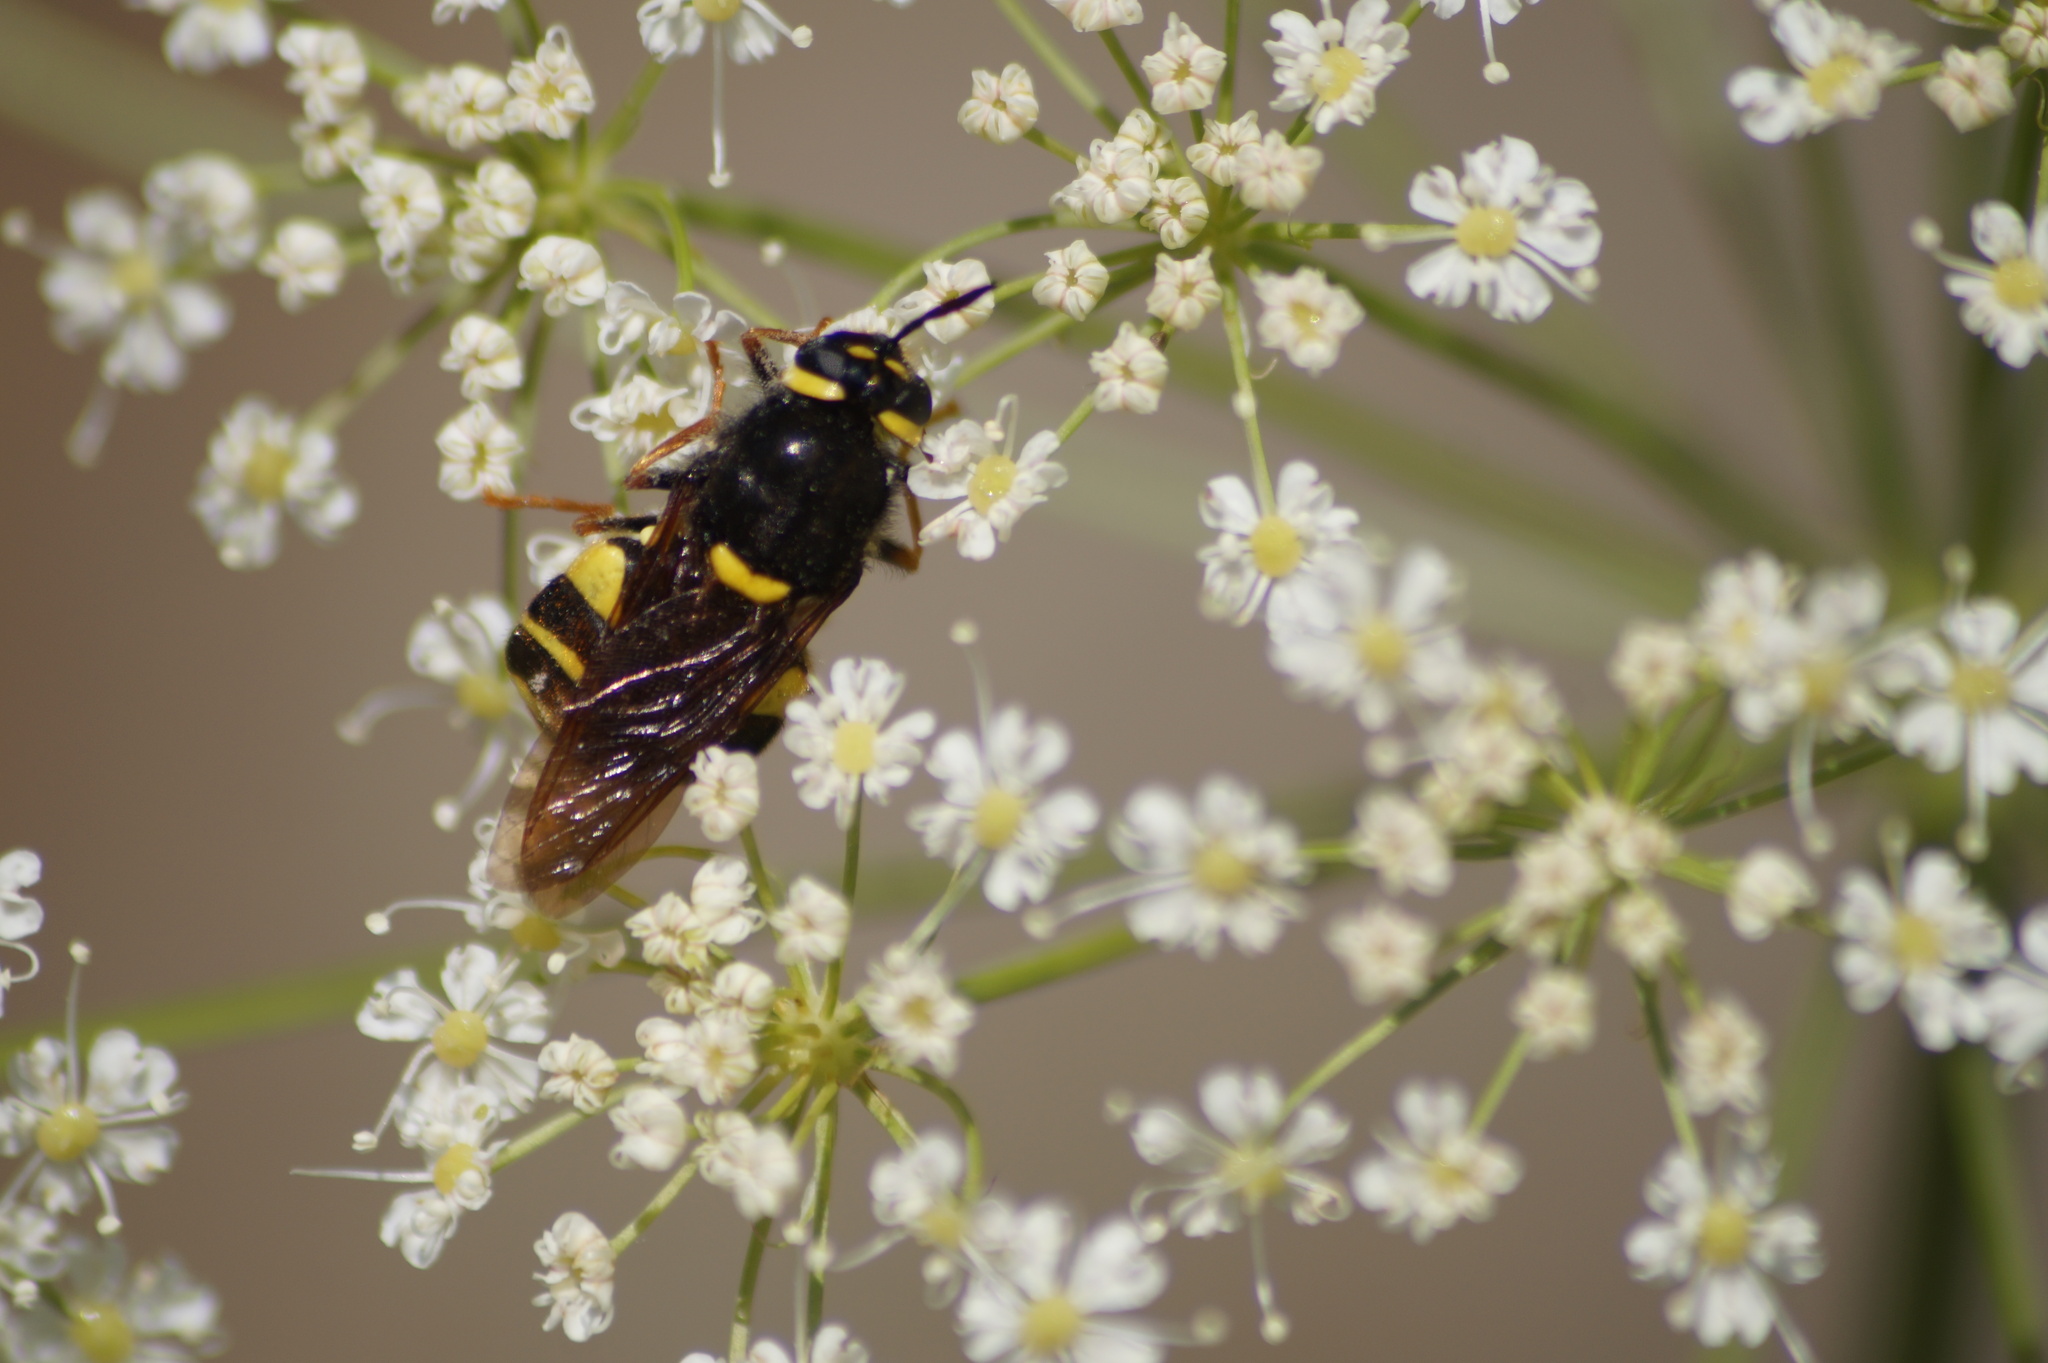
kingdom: Animalia
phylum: Arthropoda
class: Insecta
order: Diptera
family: Stratiomyidae
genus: Stratiomys
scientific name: Stratiomys potamida
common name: Banded general
